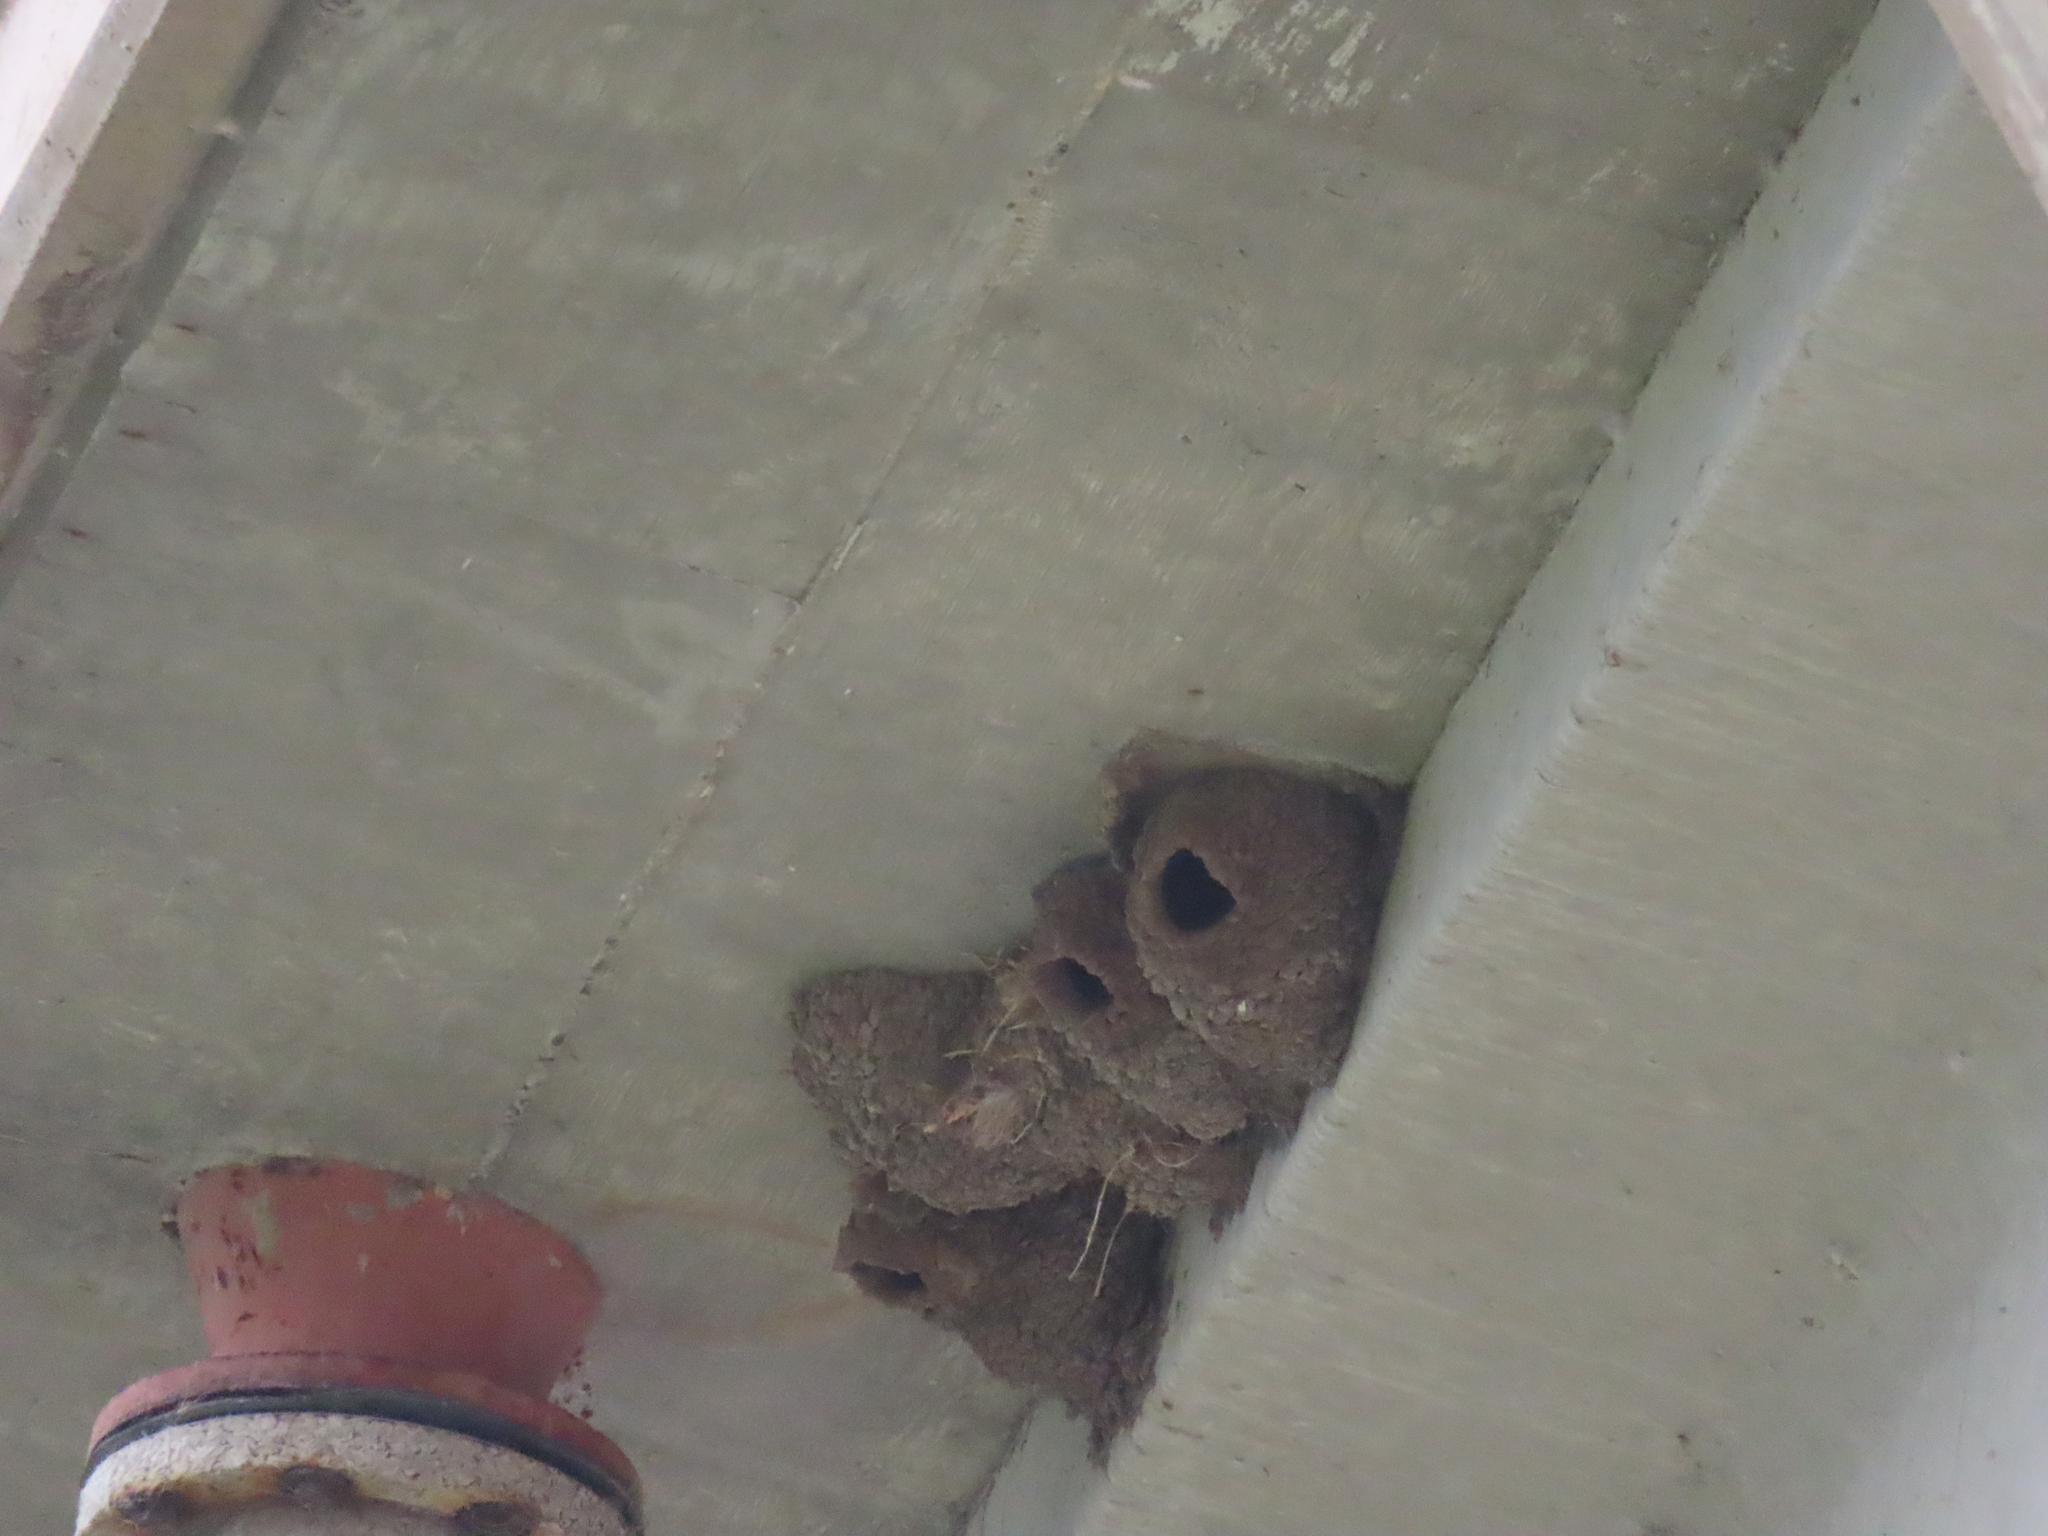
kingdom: Animalia
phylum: Chordata
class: Aves
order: Passeriformes
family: Hirundinidae
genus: Petrochelidon
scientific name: Petrochelidon pyrrhonota
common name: American cliff swallow
